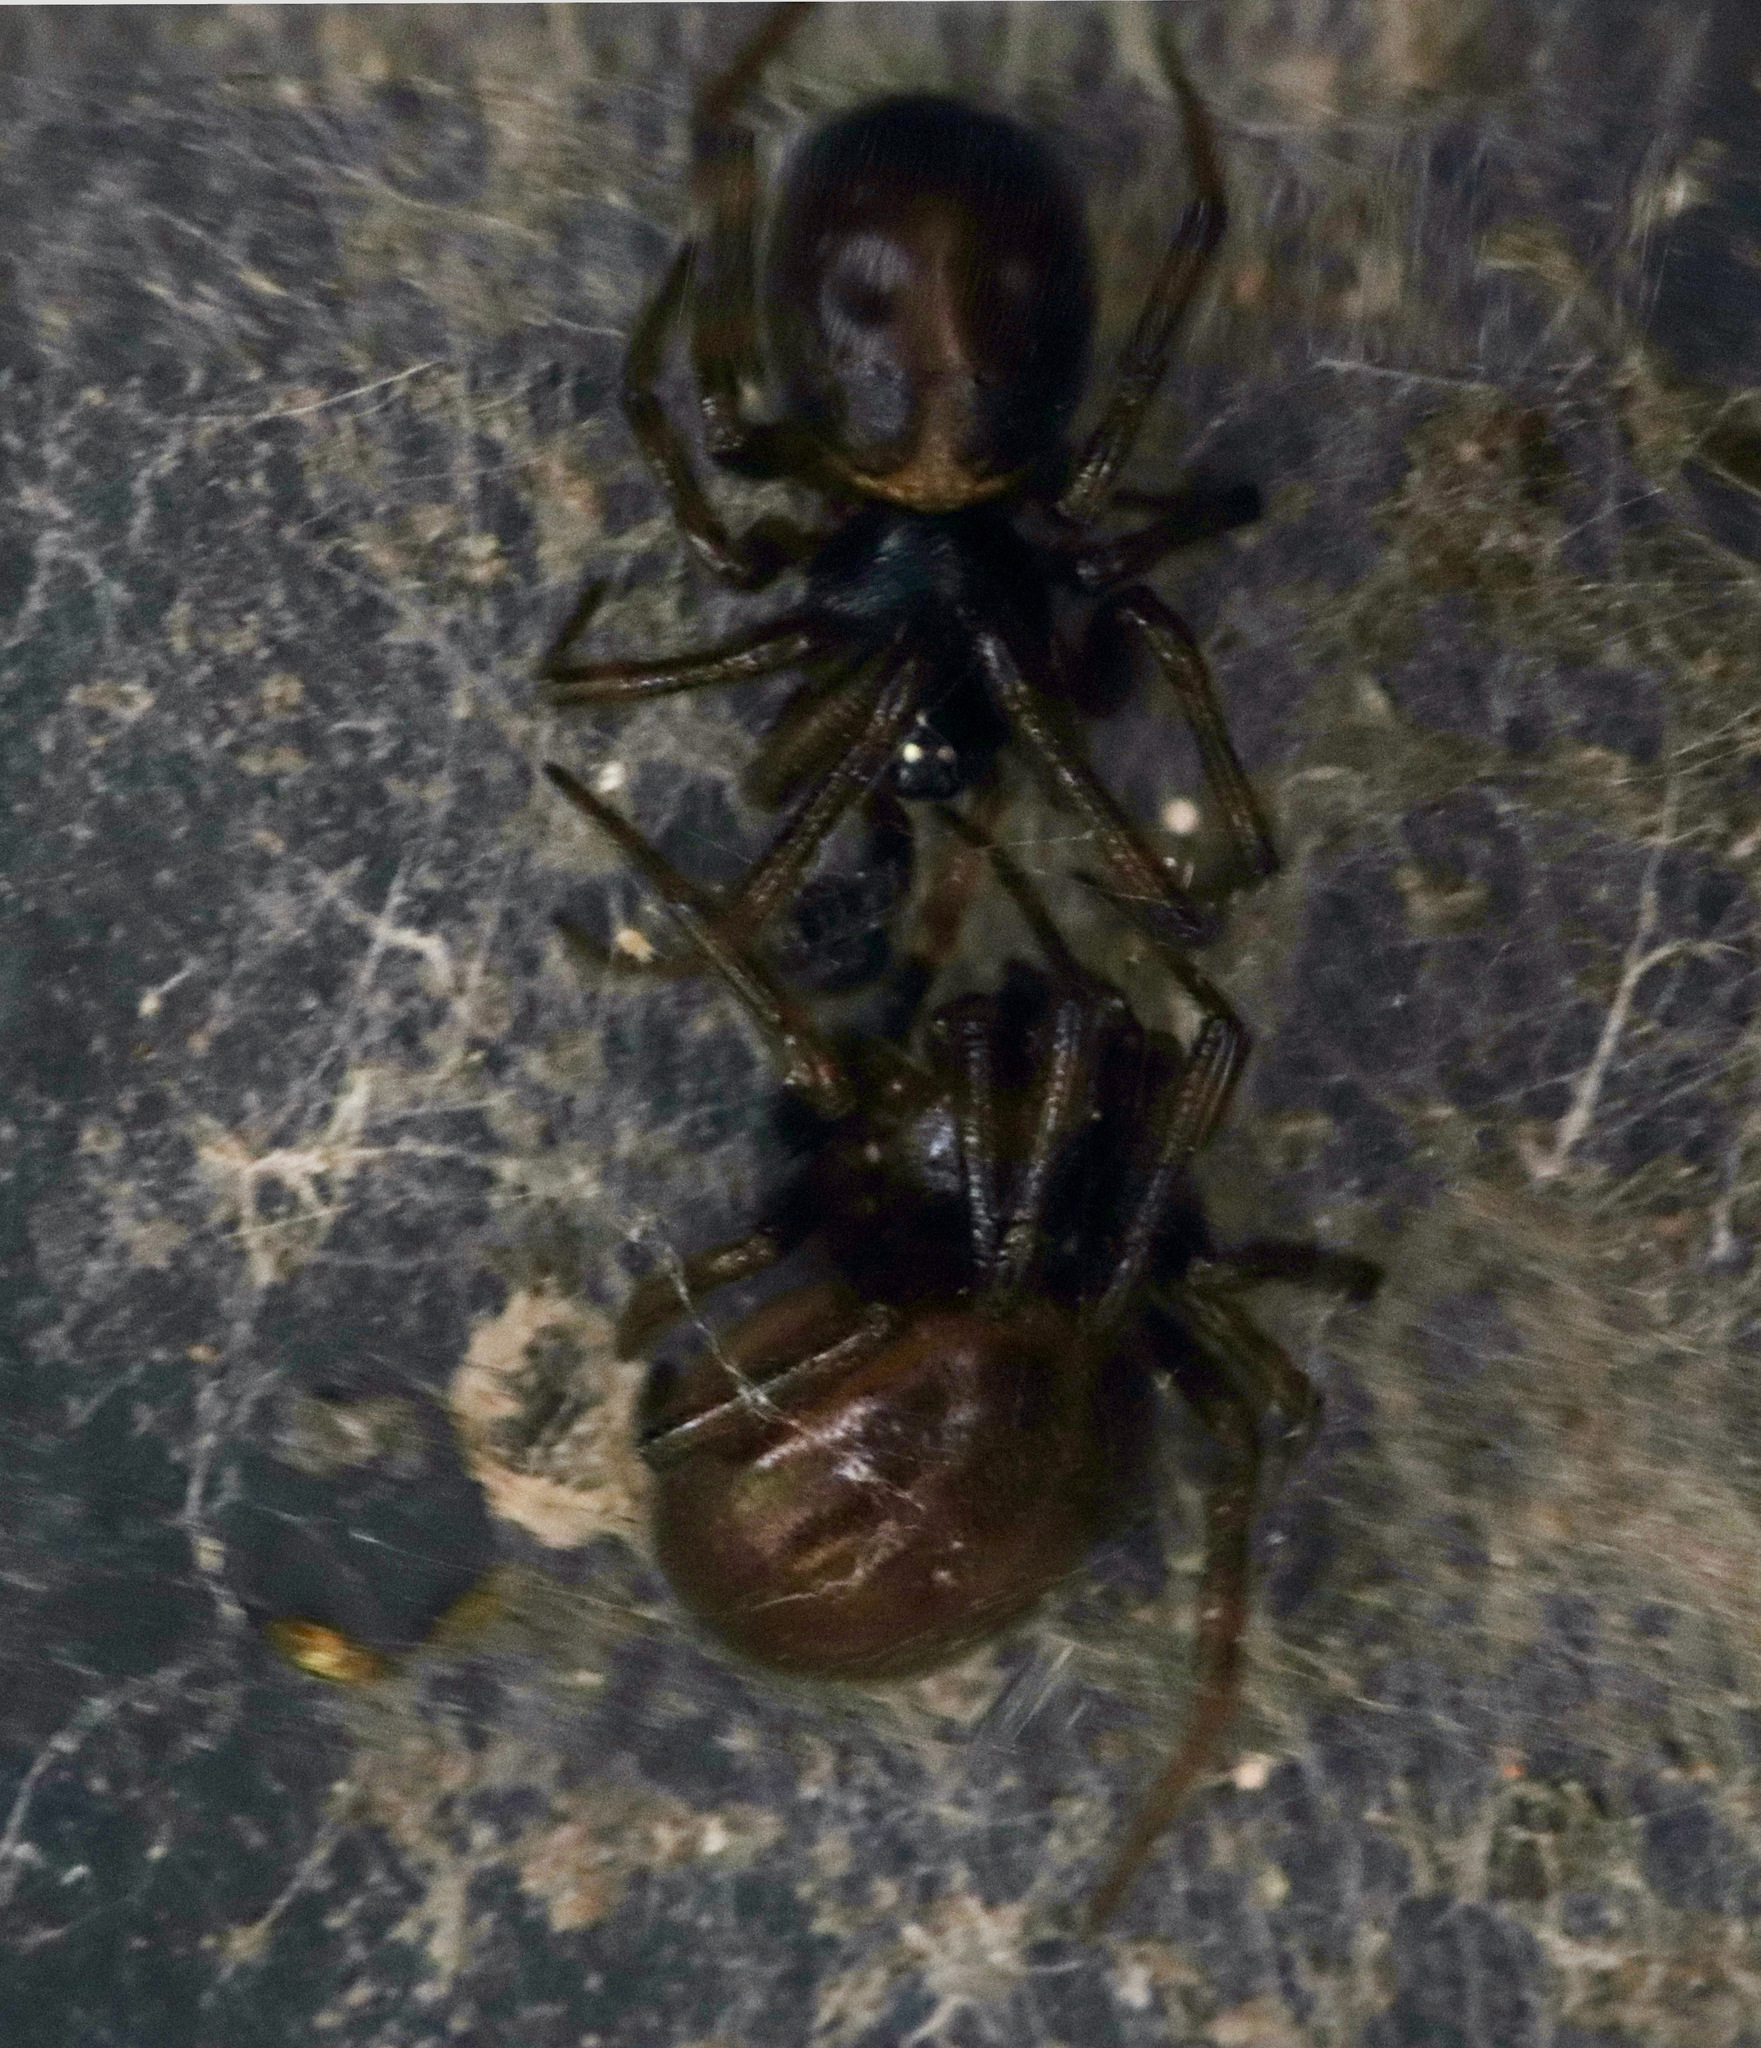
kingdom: Animalia
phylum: Arthropoda
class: Arachnida
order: Araneae
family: Theridiidae
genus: Steatoda
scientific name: Steatoda borealis
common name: Boreal combfoot
